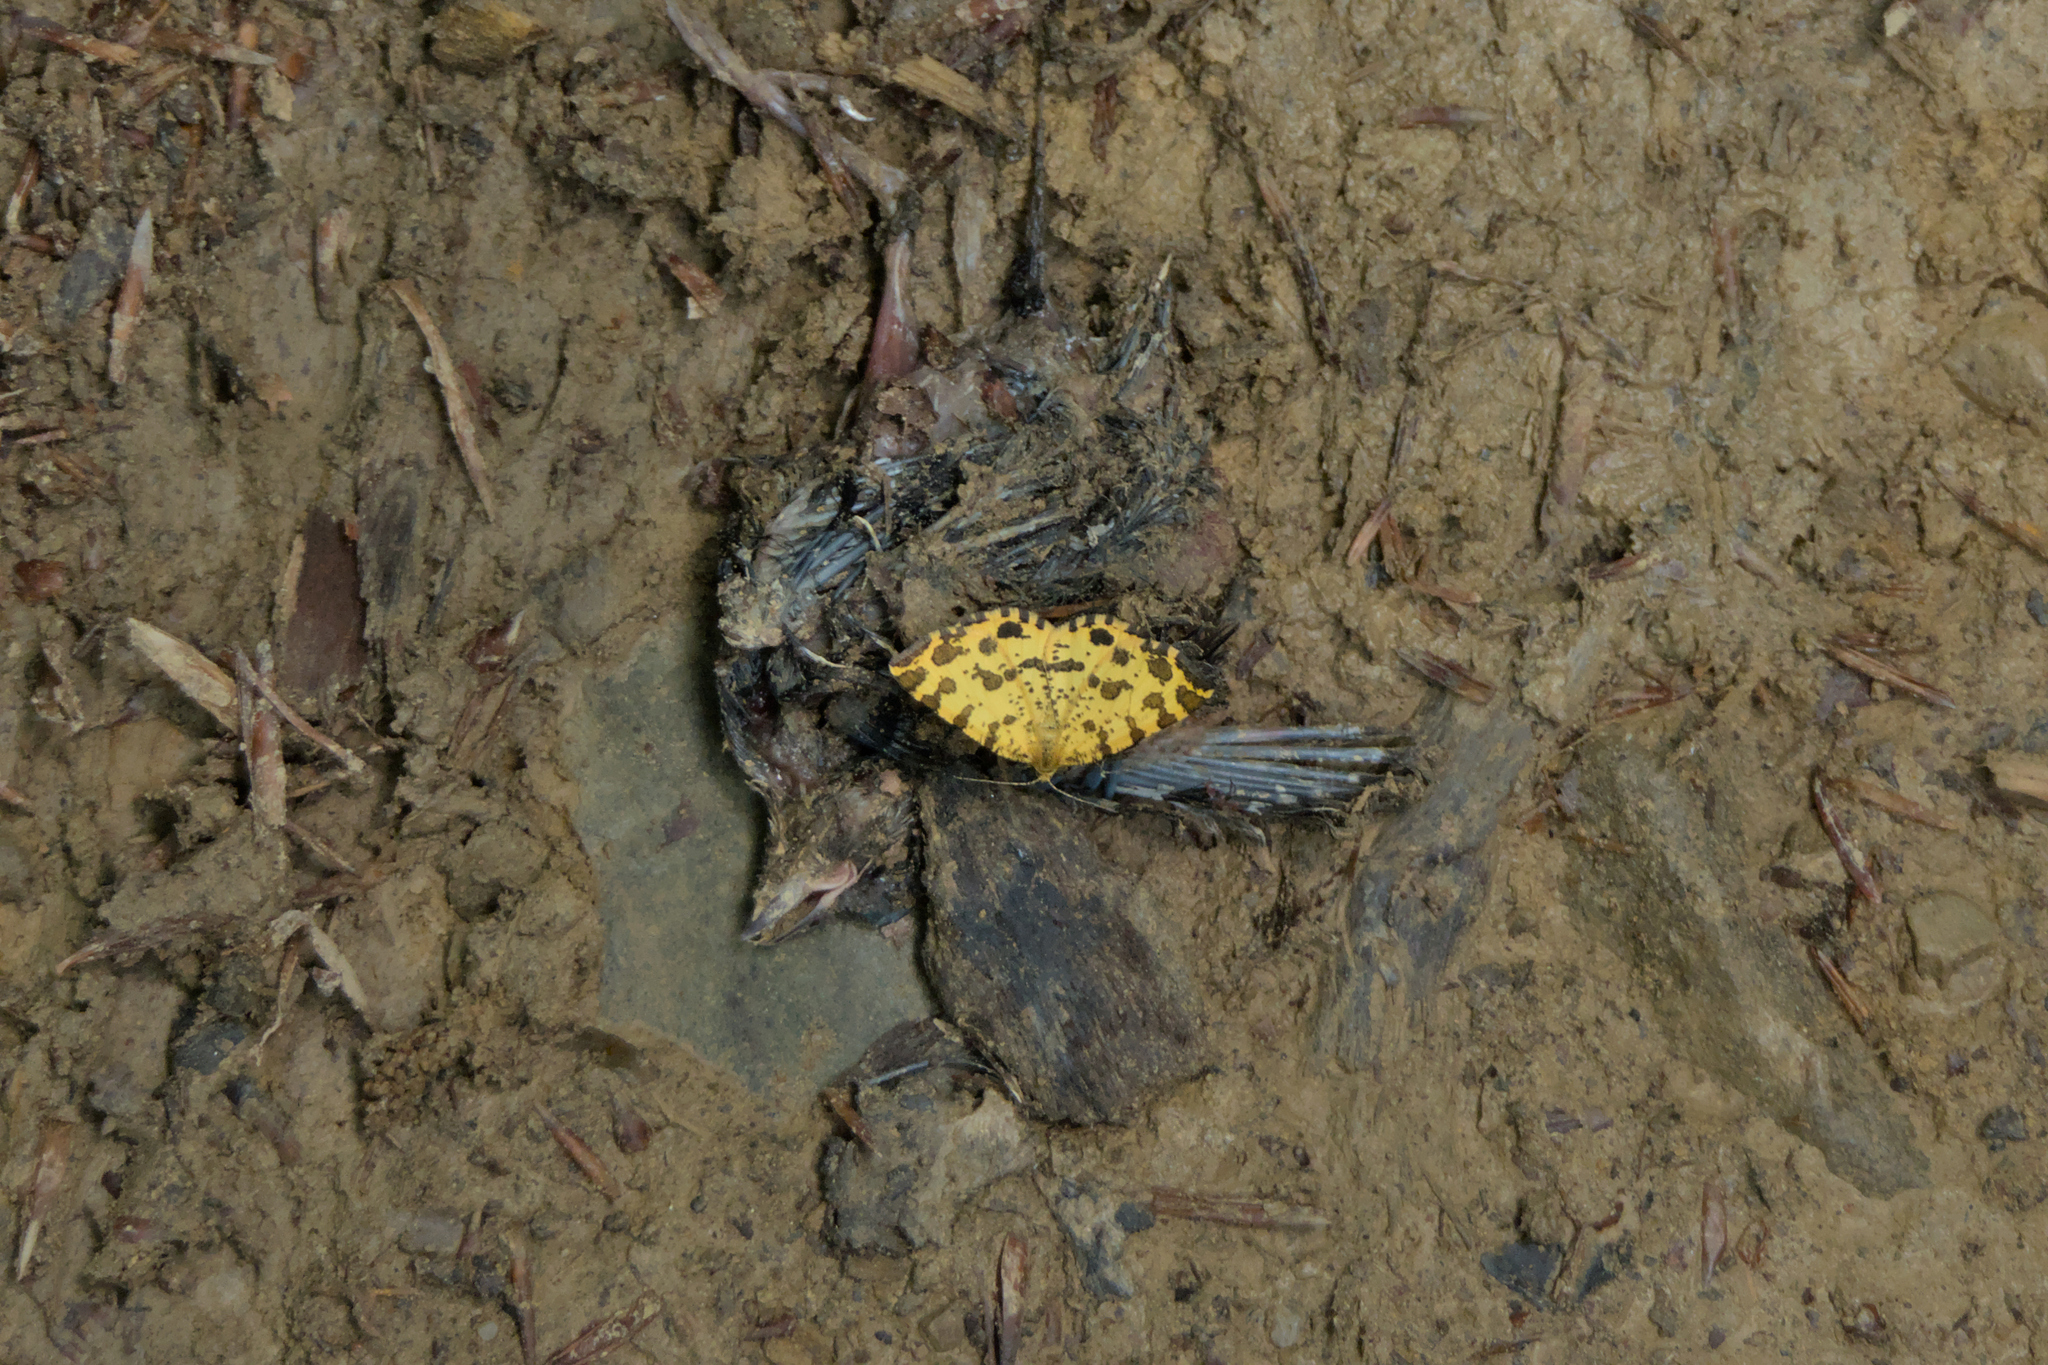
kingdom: Animalia
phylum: Arthropoda
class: Insecta
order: Lepidoptera
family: Geometridae
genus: Pseudopanthera
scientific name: Pseudopanthera macularia
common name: Speckled yellow
